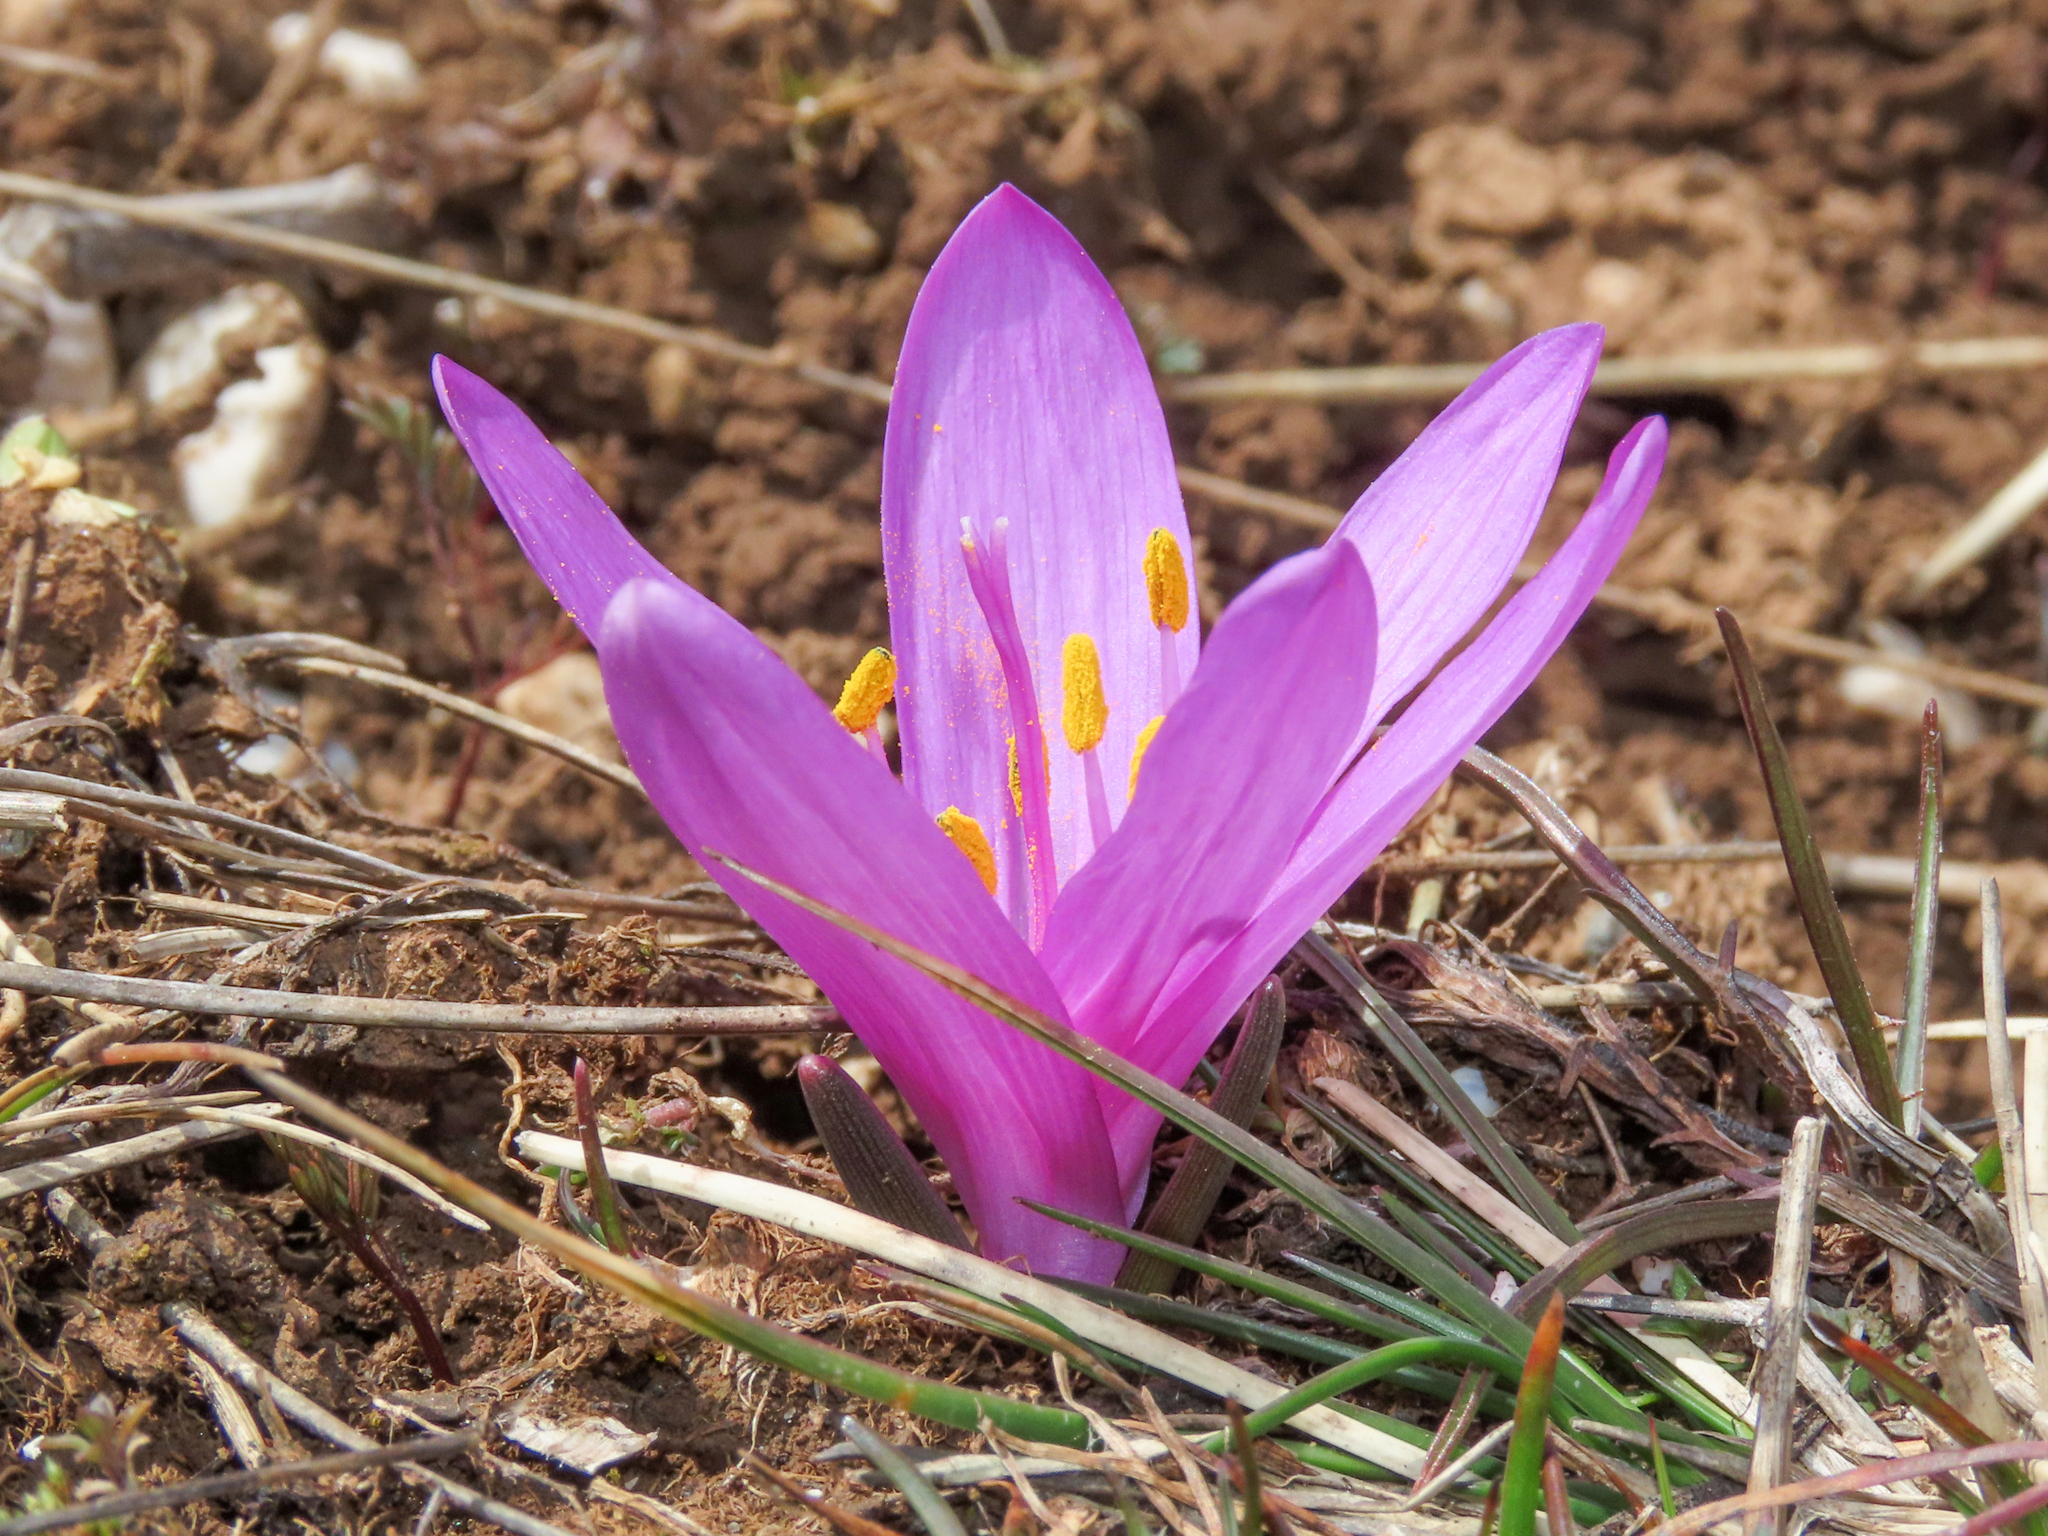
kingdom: Plantae
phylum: Tracheophyta
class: Liliopsida
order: Liliales
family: Colchicaceae
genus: Colchicum
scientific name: Colchicum bulbocodium
